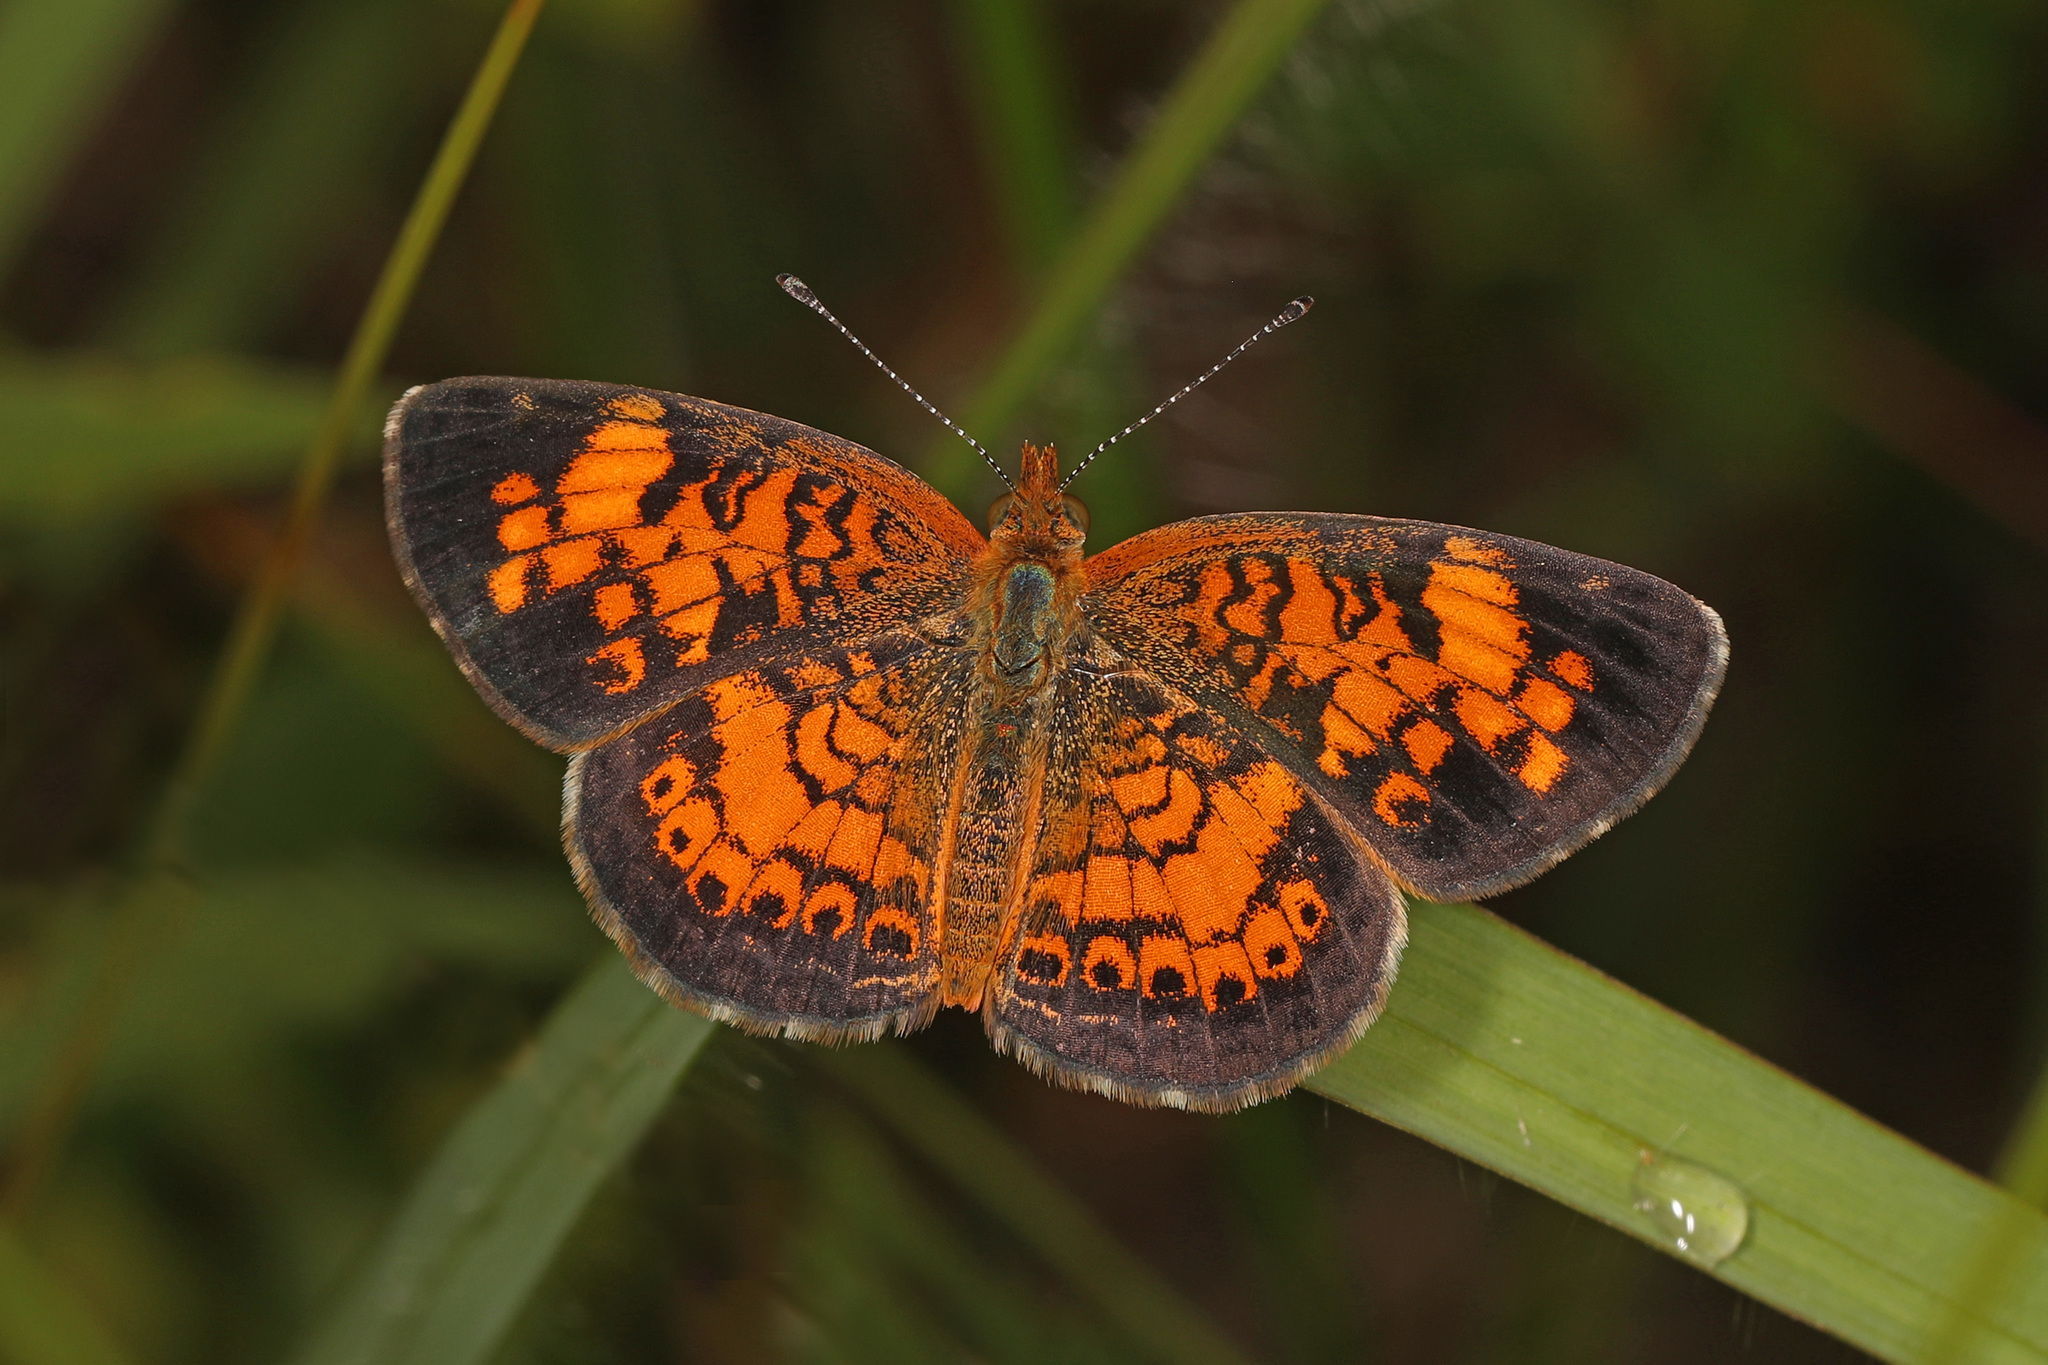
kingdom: Animalia
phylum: Arthropoda
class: Insecta
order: Lepidoptera
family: Nymphalidae
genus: Phyciodes
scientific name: Phyciodes tharos
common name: Pearl crescent
